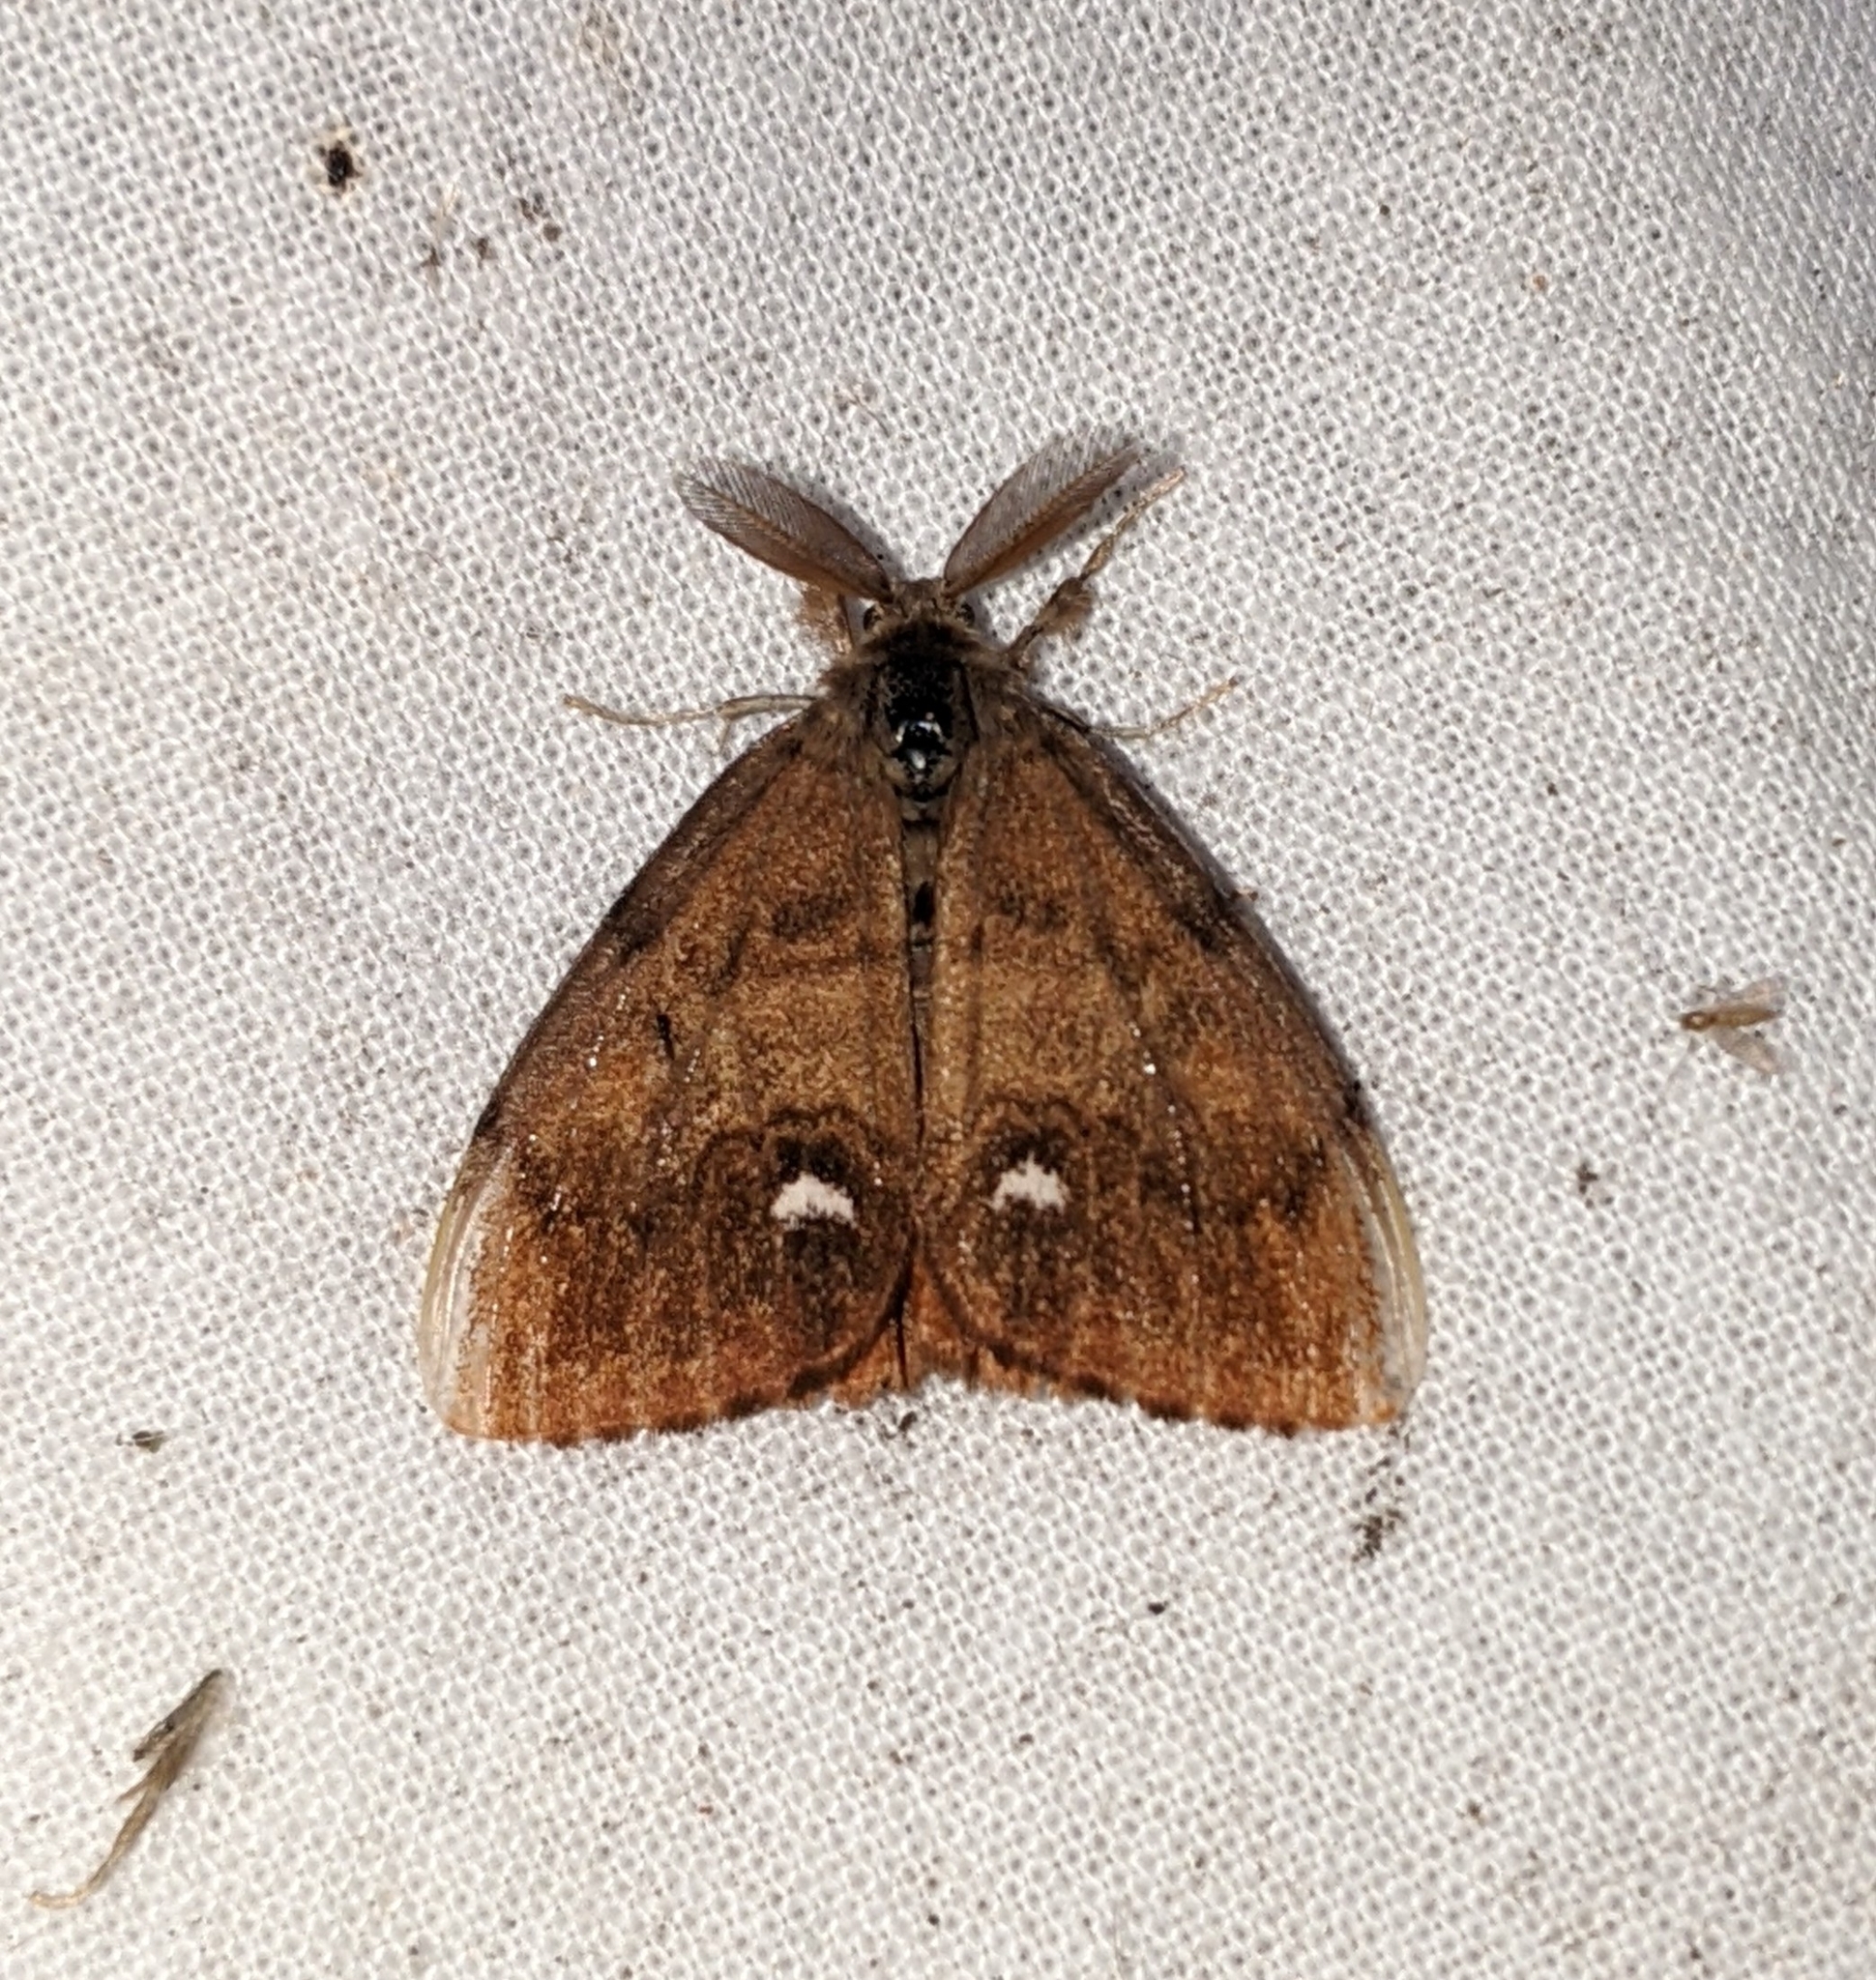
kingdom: Animalia
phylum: Arthropoda
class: Insecta
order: Lepidoptera
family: Erebidae
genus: Orgyia
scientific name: Orgyia antiqua
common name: Vapourer
